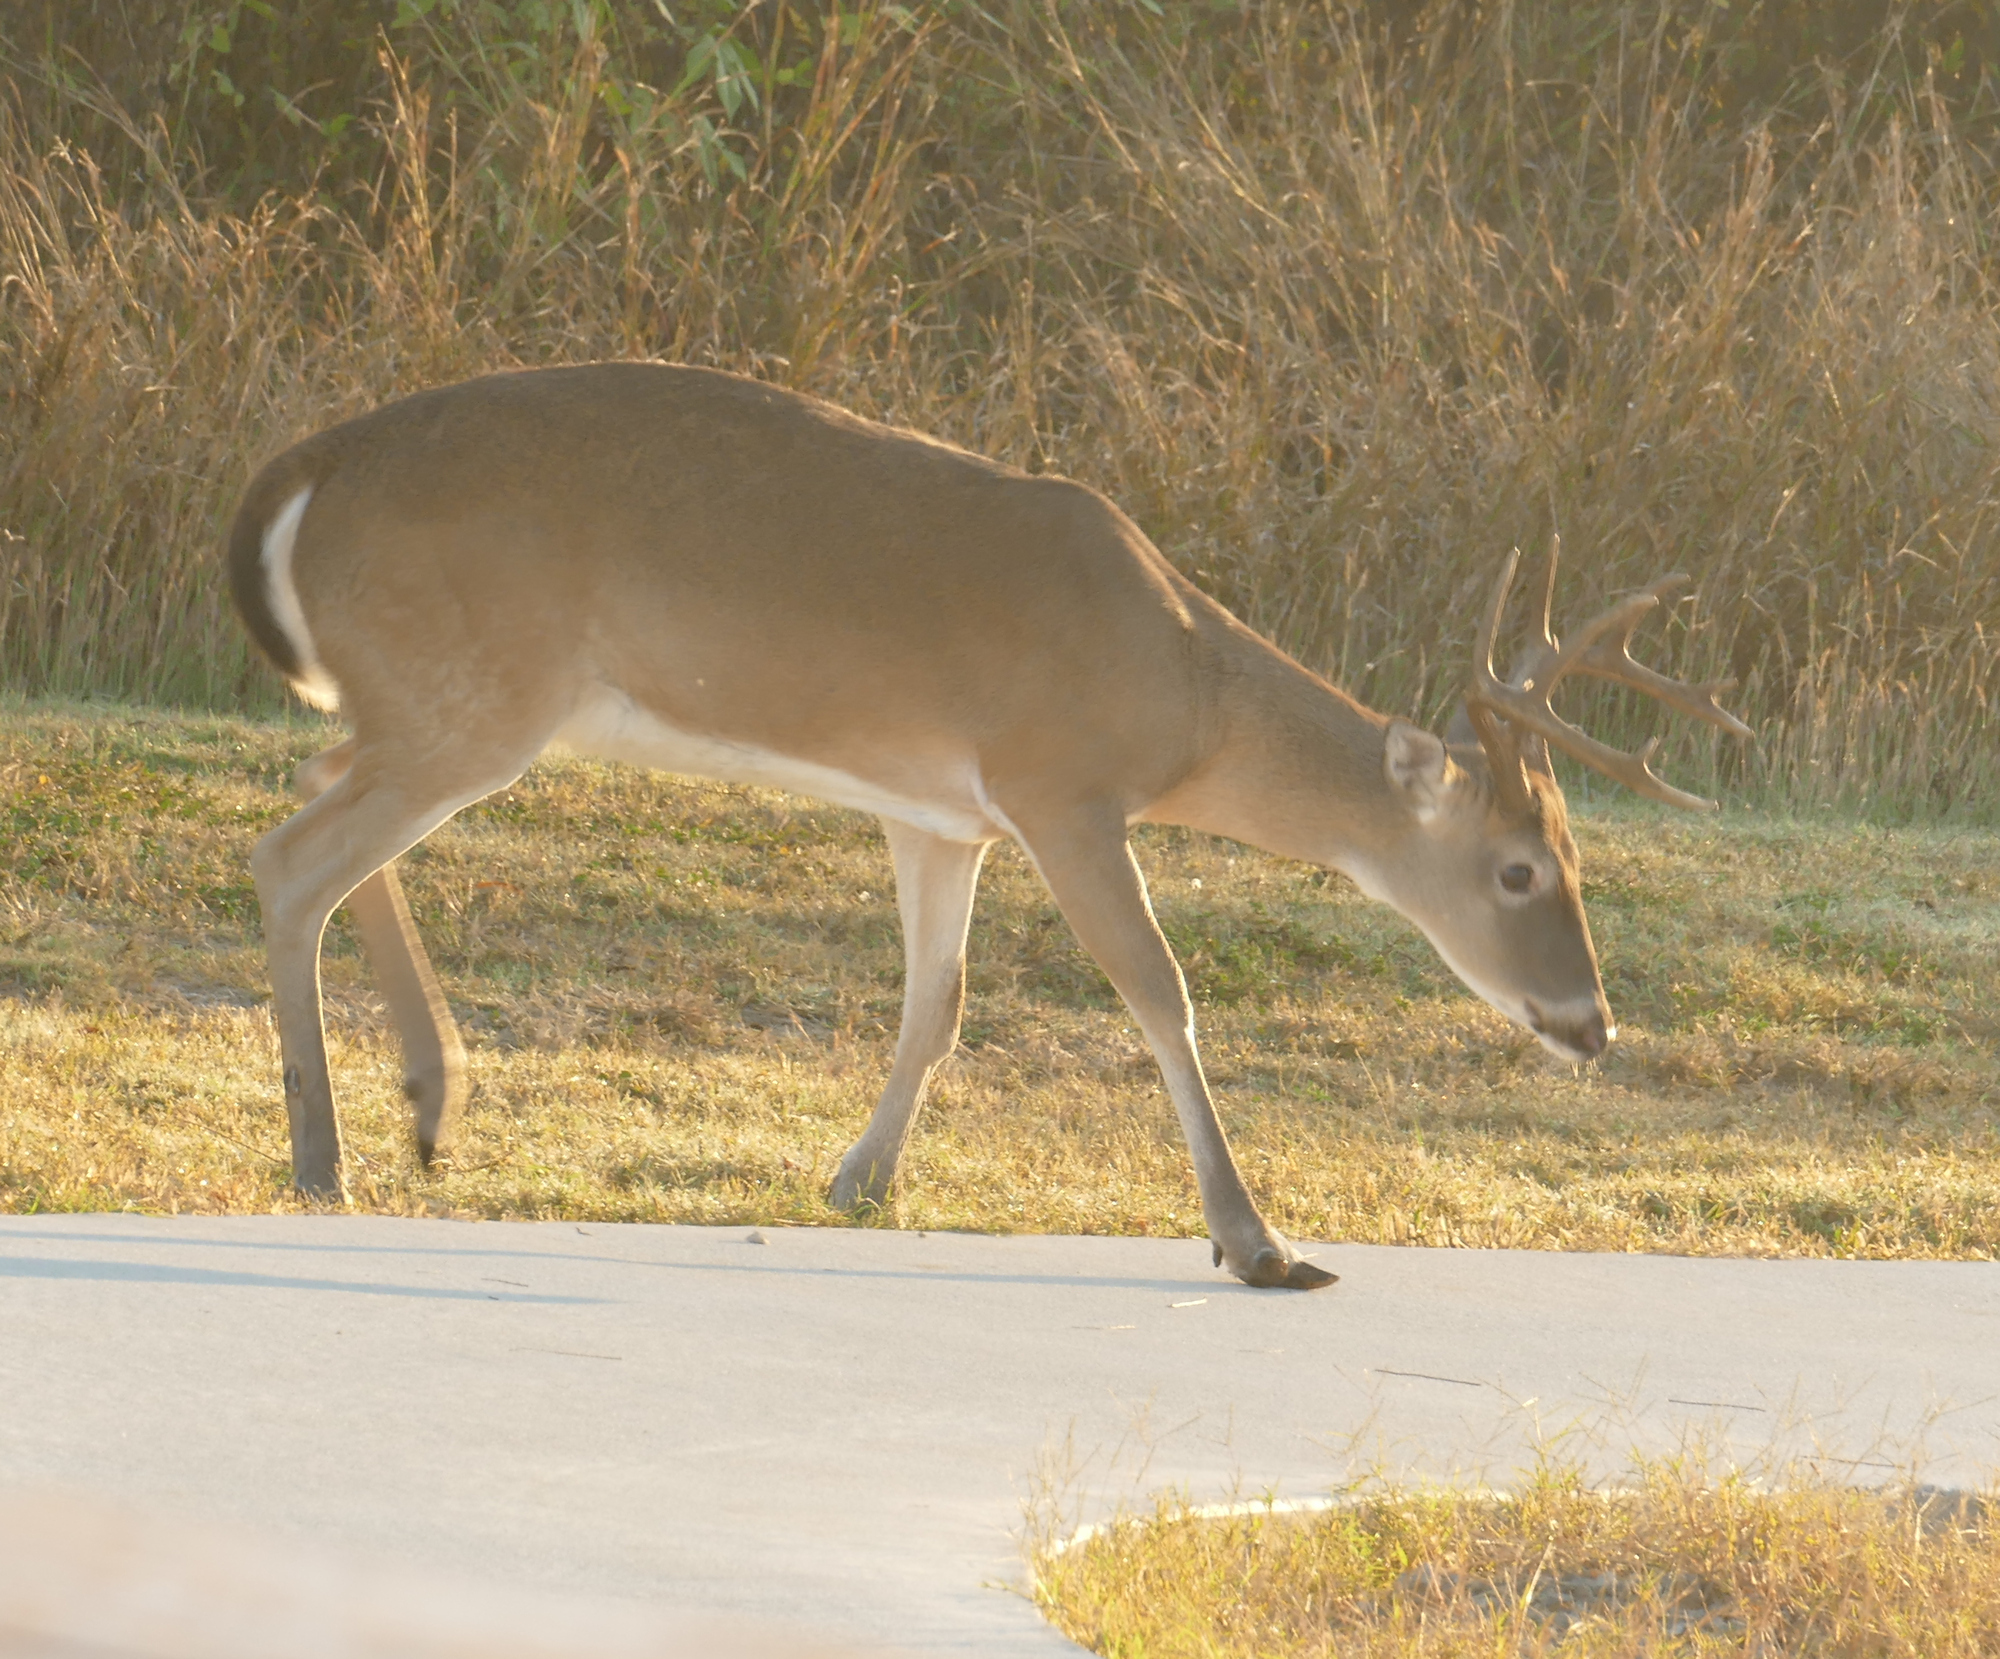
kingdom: Animalia
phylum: Chordata
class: Mammalia
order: Artiodactyla
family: Cervidae
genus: Odocoileus
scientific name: Odocoileus virginianus
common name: White-tailed deer
